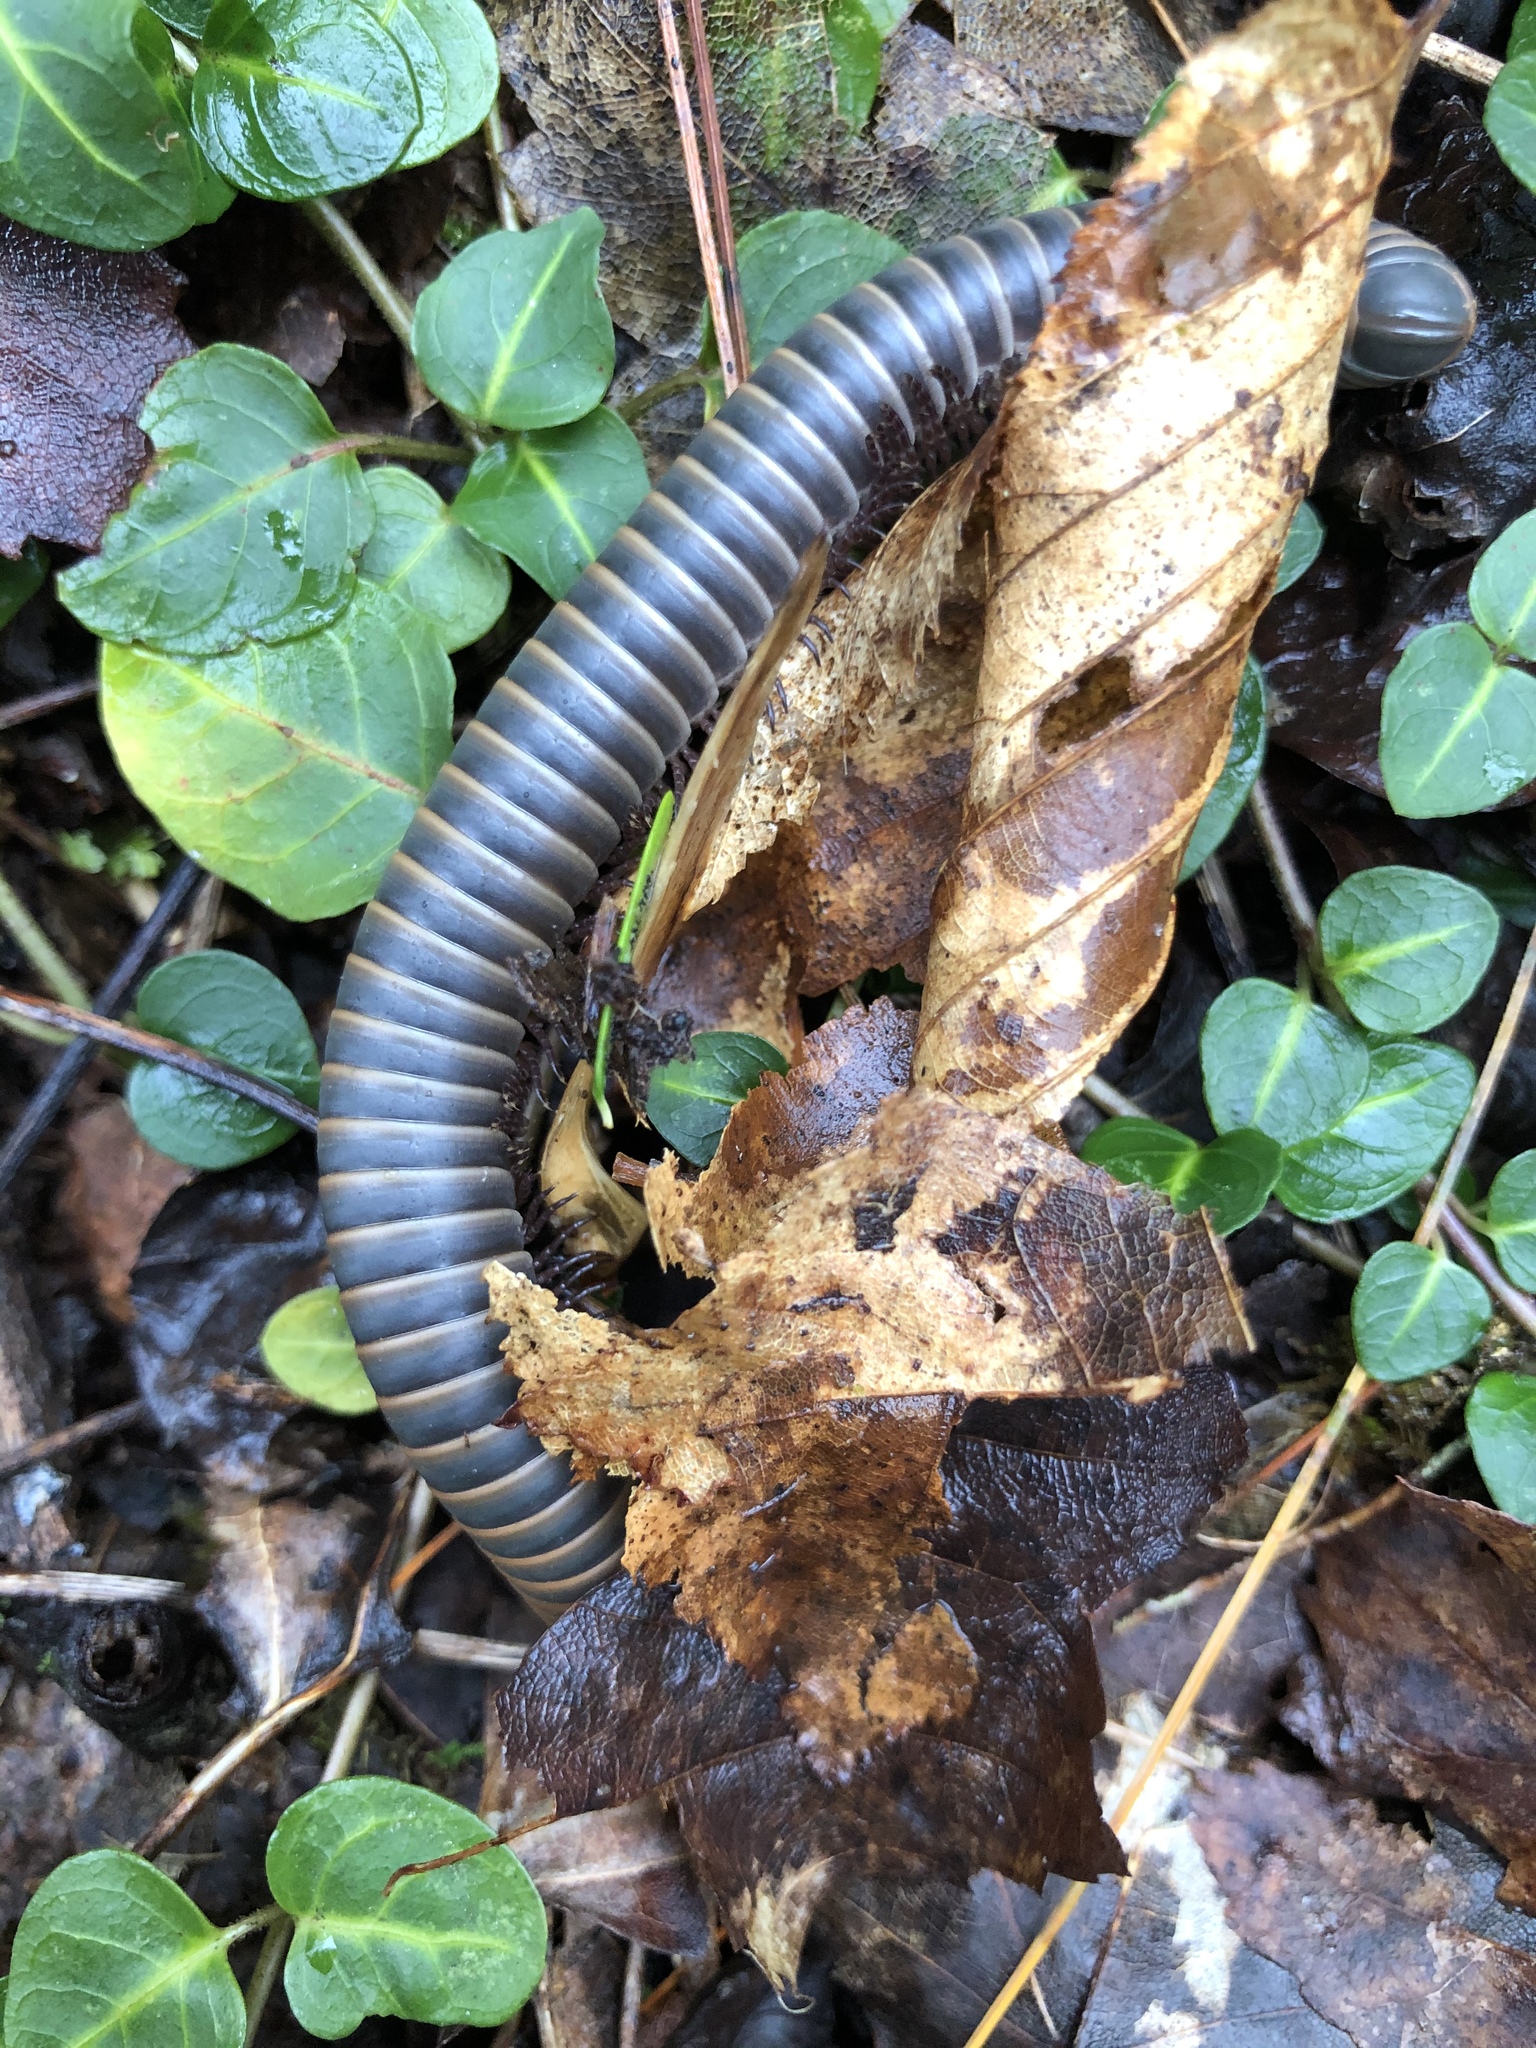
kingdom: Animalia
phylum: Arthropoda
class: Diplopoda
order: Spirobolida
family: Spirobolidae
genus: Narceus
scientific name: Narceus
